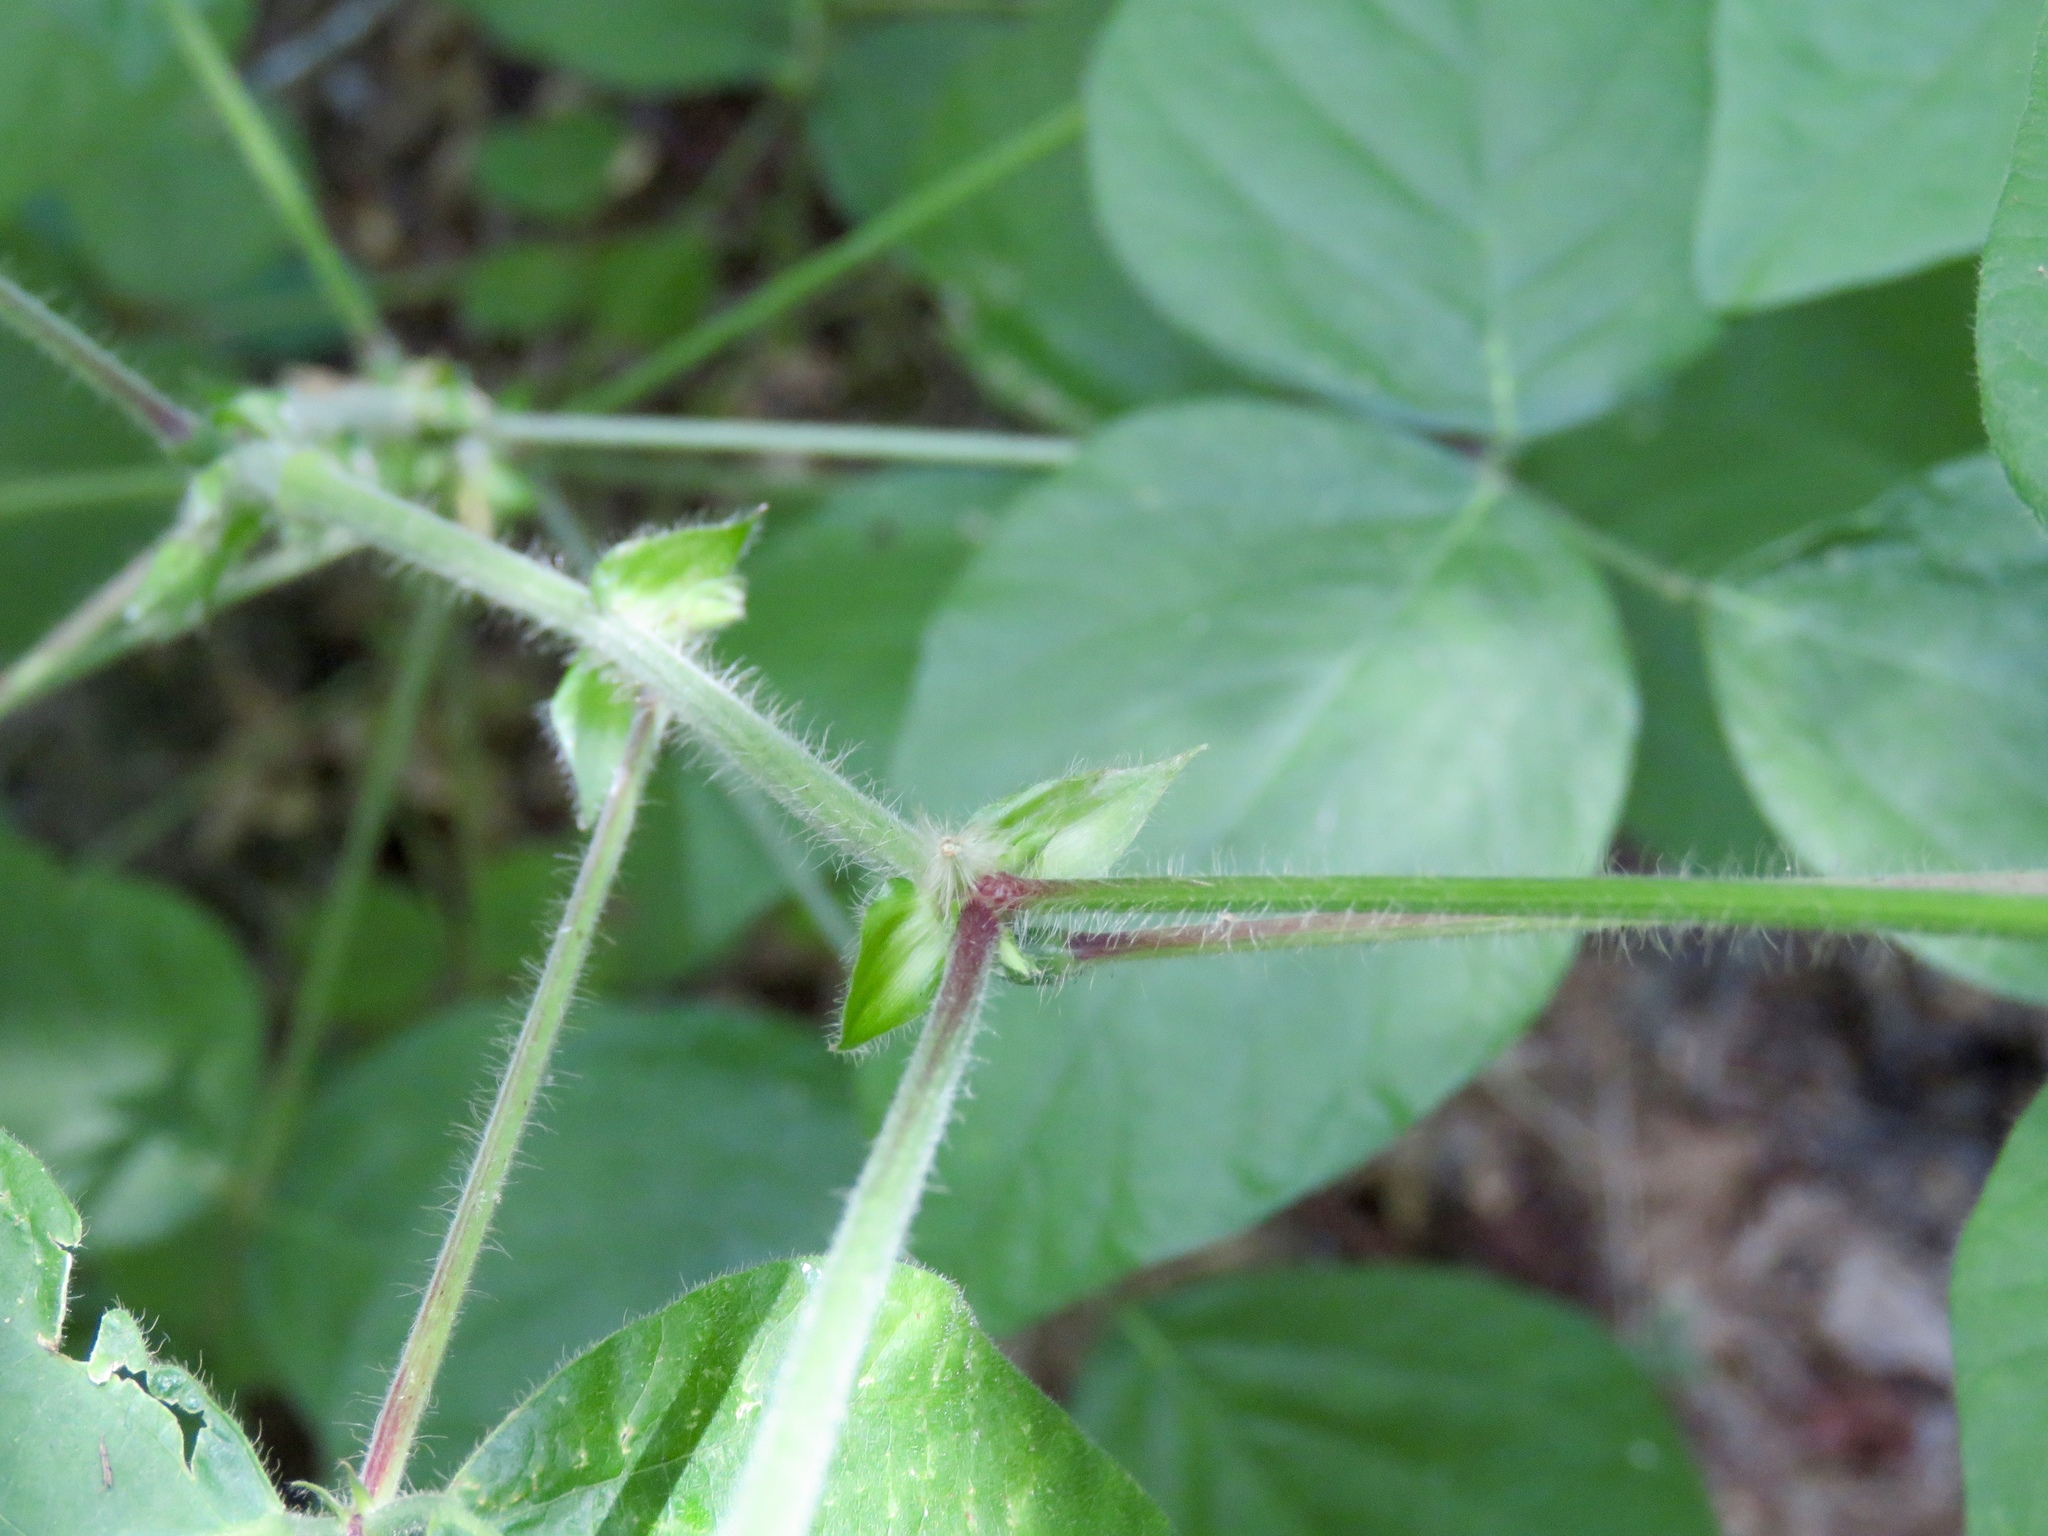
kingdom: Plantae
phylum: Tracheophyta
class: Magnoliopsida
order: Fabales
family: Fabaceae
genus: Desmodium
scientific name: Desmodium canescens
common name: Hoary tick-clover
